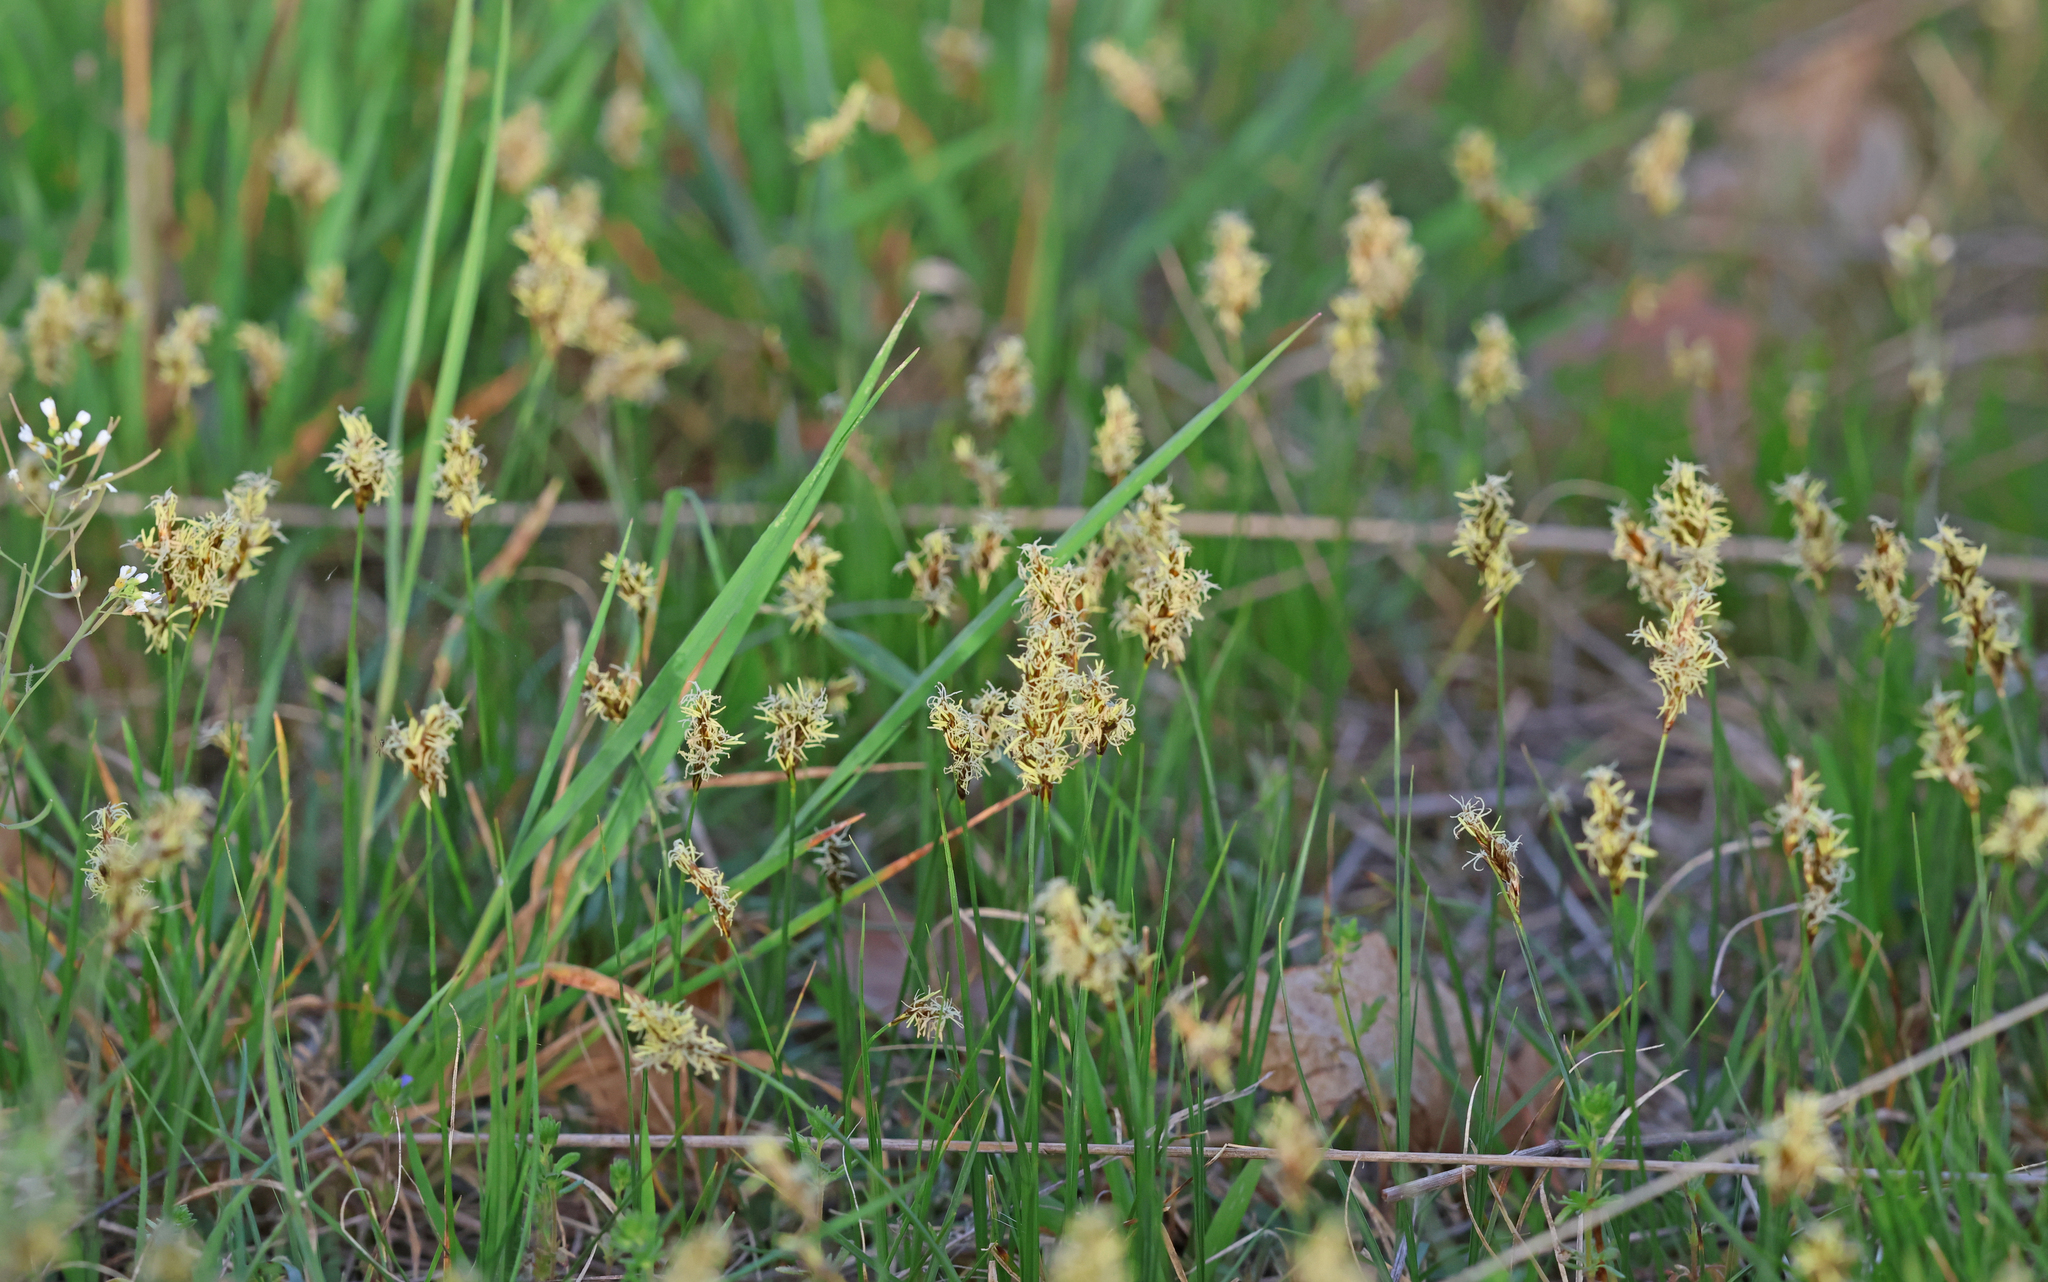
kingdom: Plantae
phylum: Tracheophyta
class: Liliopsida
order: Poales
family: Cyperaceae
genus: Carex
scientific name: Carex praecox
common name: Early sedge
